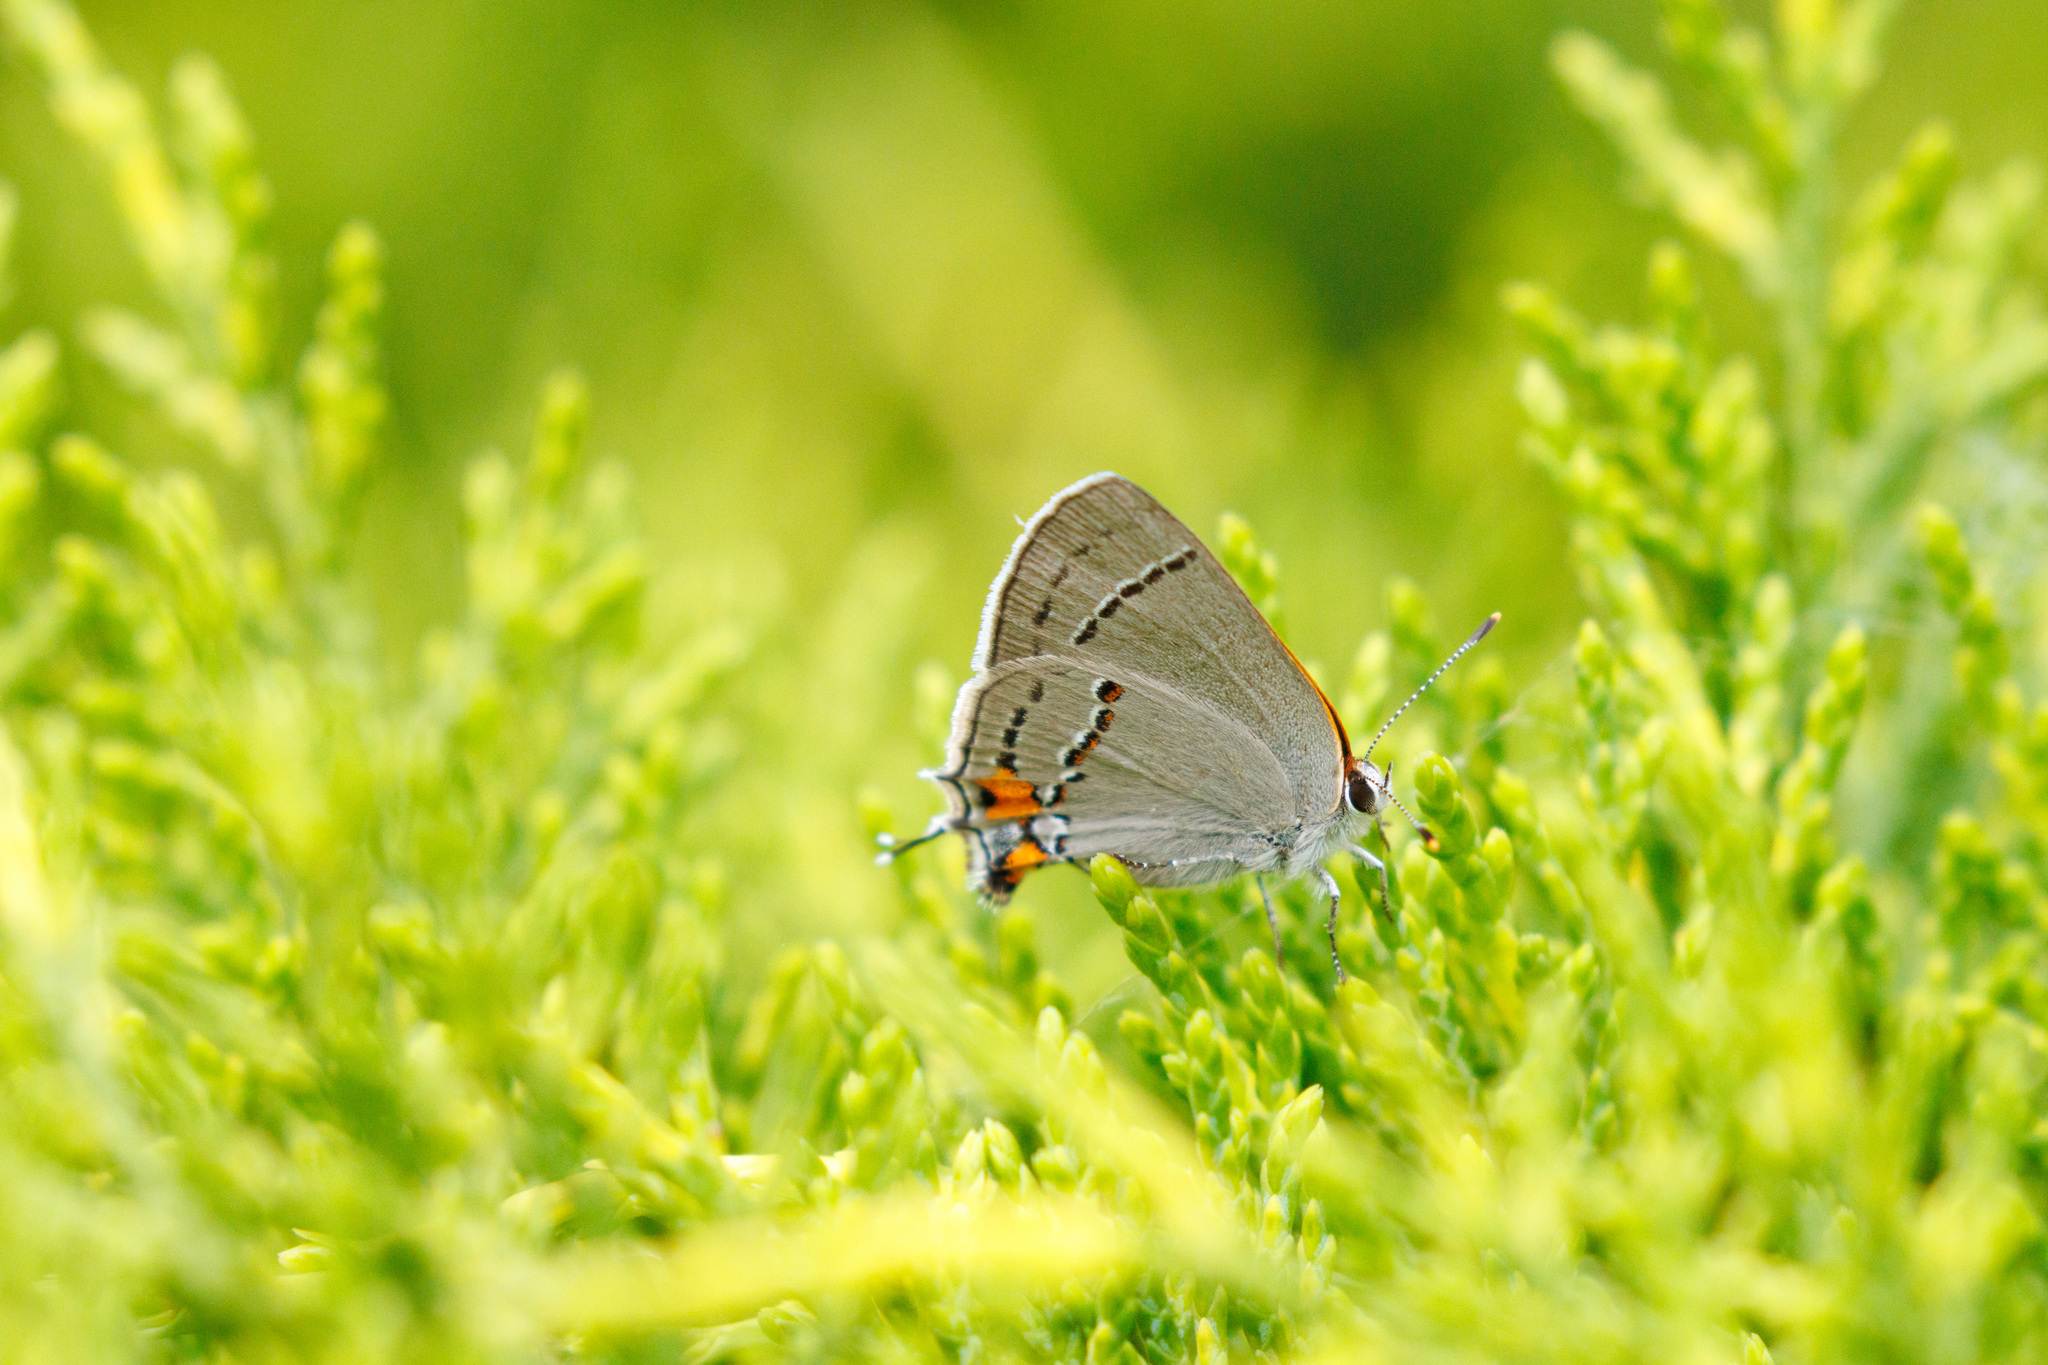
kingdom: Animalia
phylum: Arthropoda
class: Insecta
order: Lepidoptera
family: Lycaenidae
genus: Strymon
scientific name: Strymon melinus
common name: Gray hairstreak
